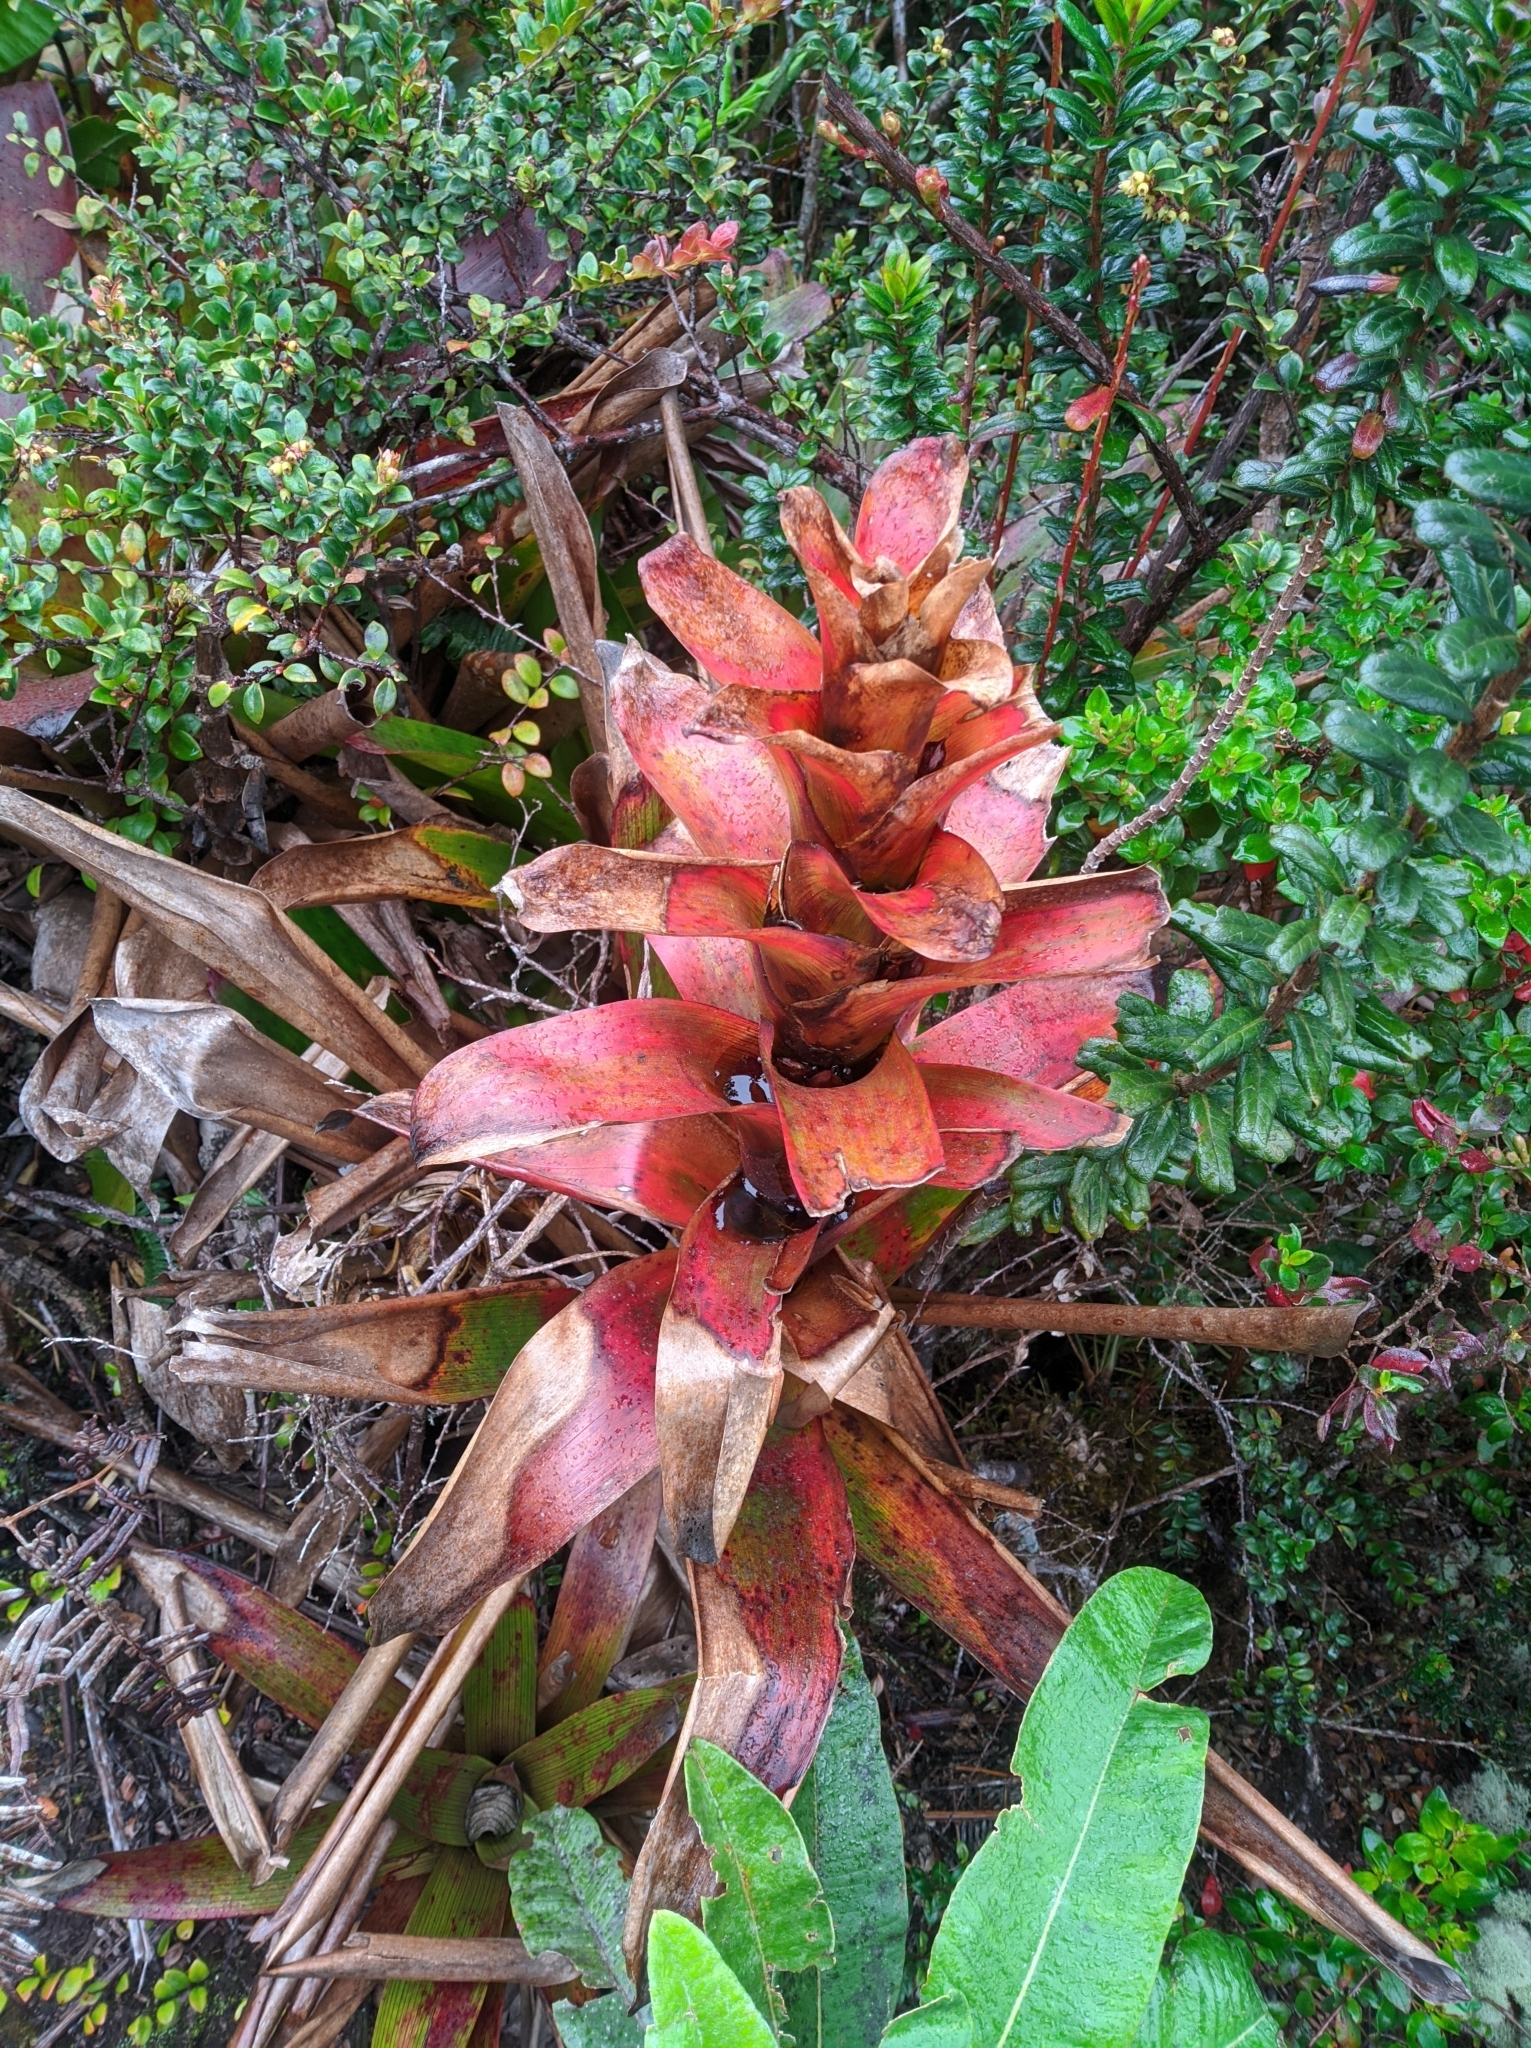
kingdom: Plantae
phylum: Tracheophyta
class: Liliopsida
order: Poales
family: Bromeliaceae
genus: Guzmania
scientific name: Guzmania gloriosa
